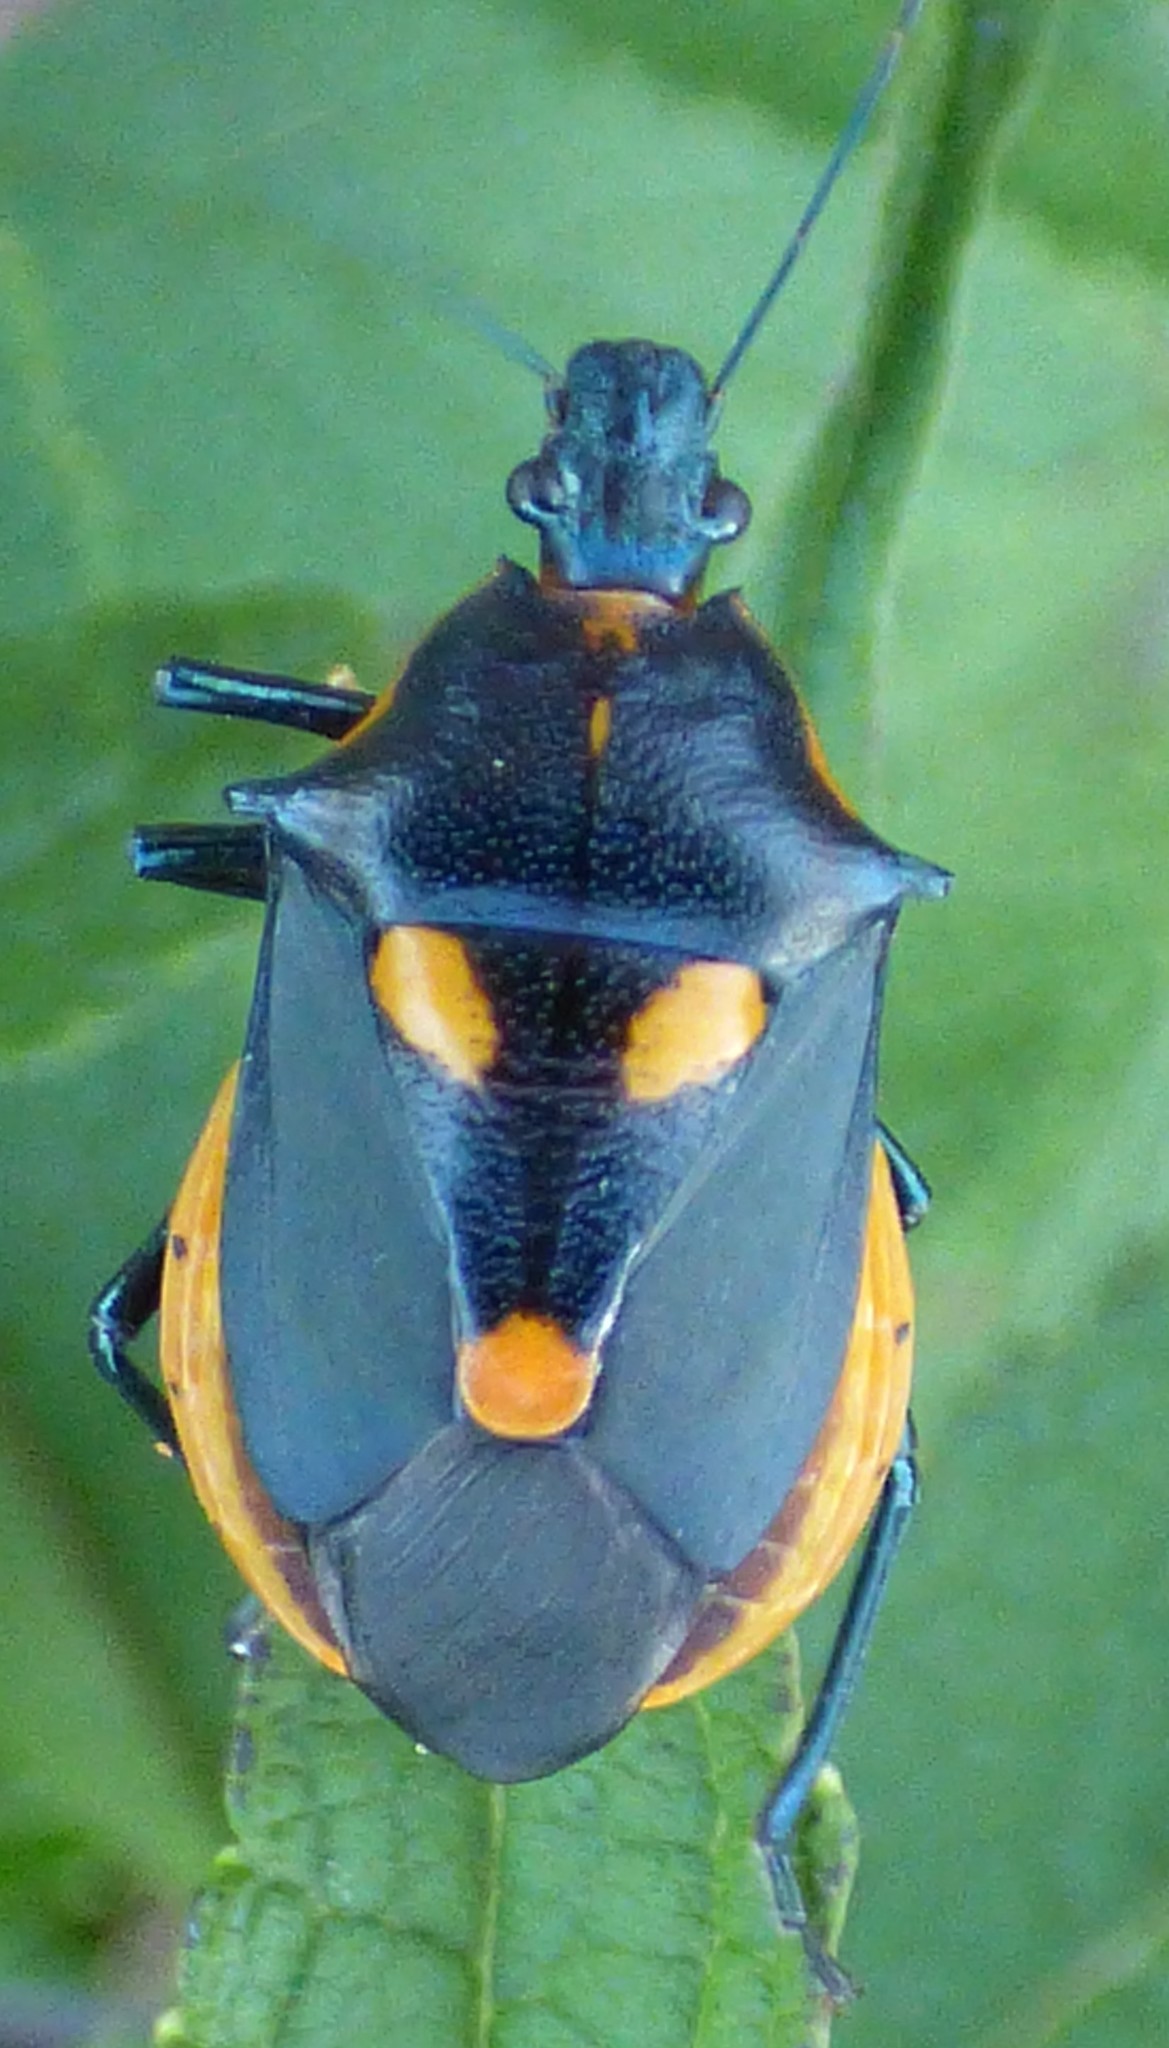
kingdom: Animalia
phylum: Arthropoda
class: Insecta
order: Hemiptera
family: Pentatomidae
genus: Euthyrhynchus
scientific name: Euthyrhynchus floridanus
